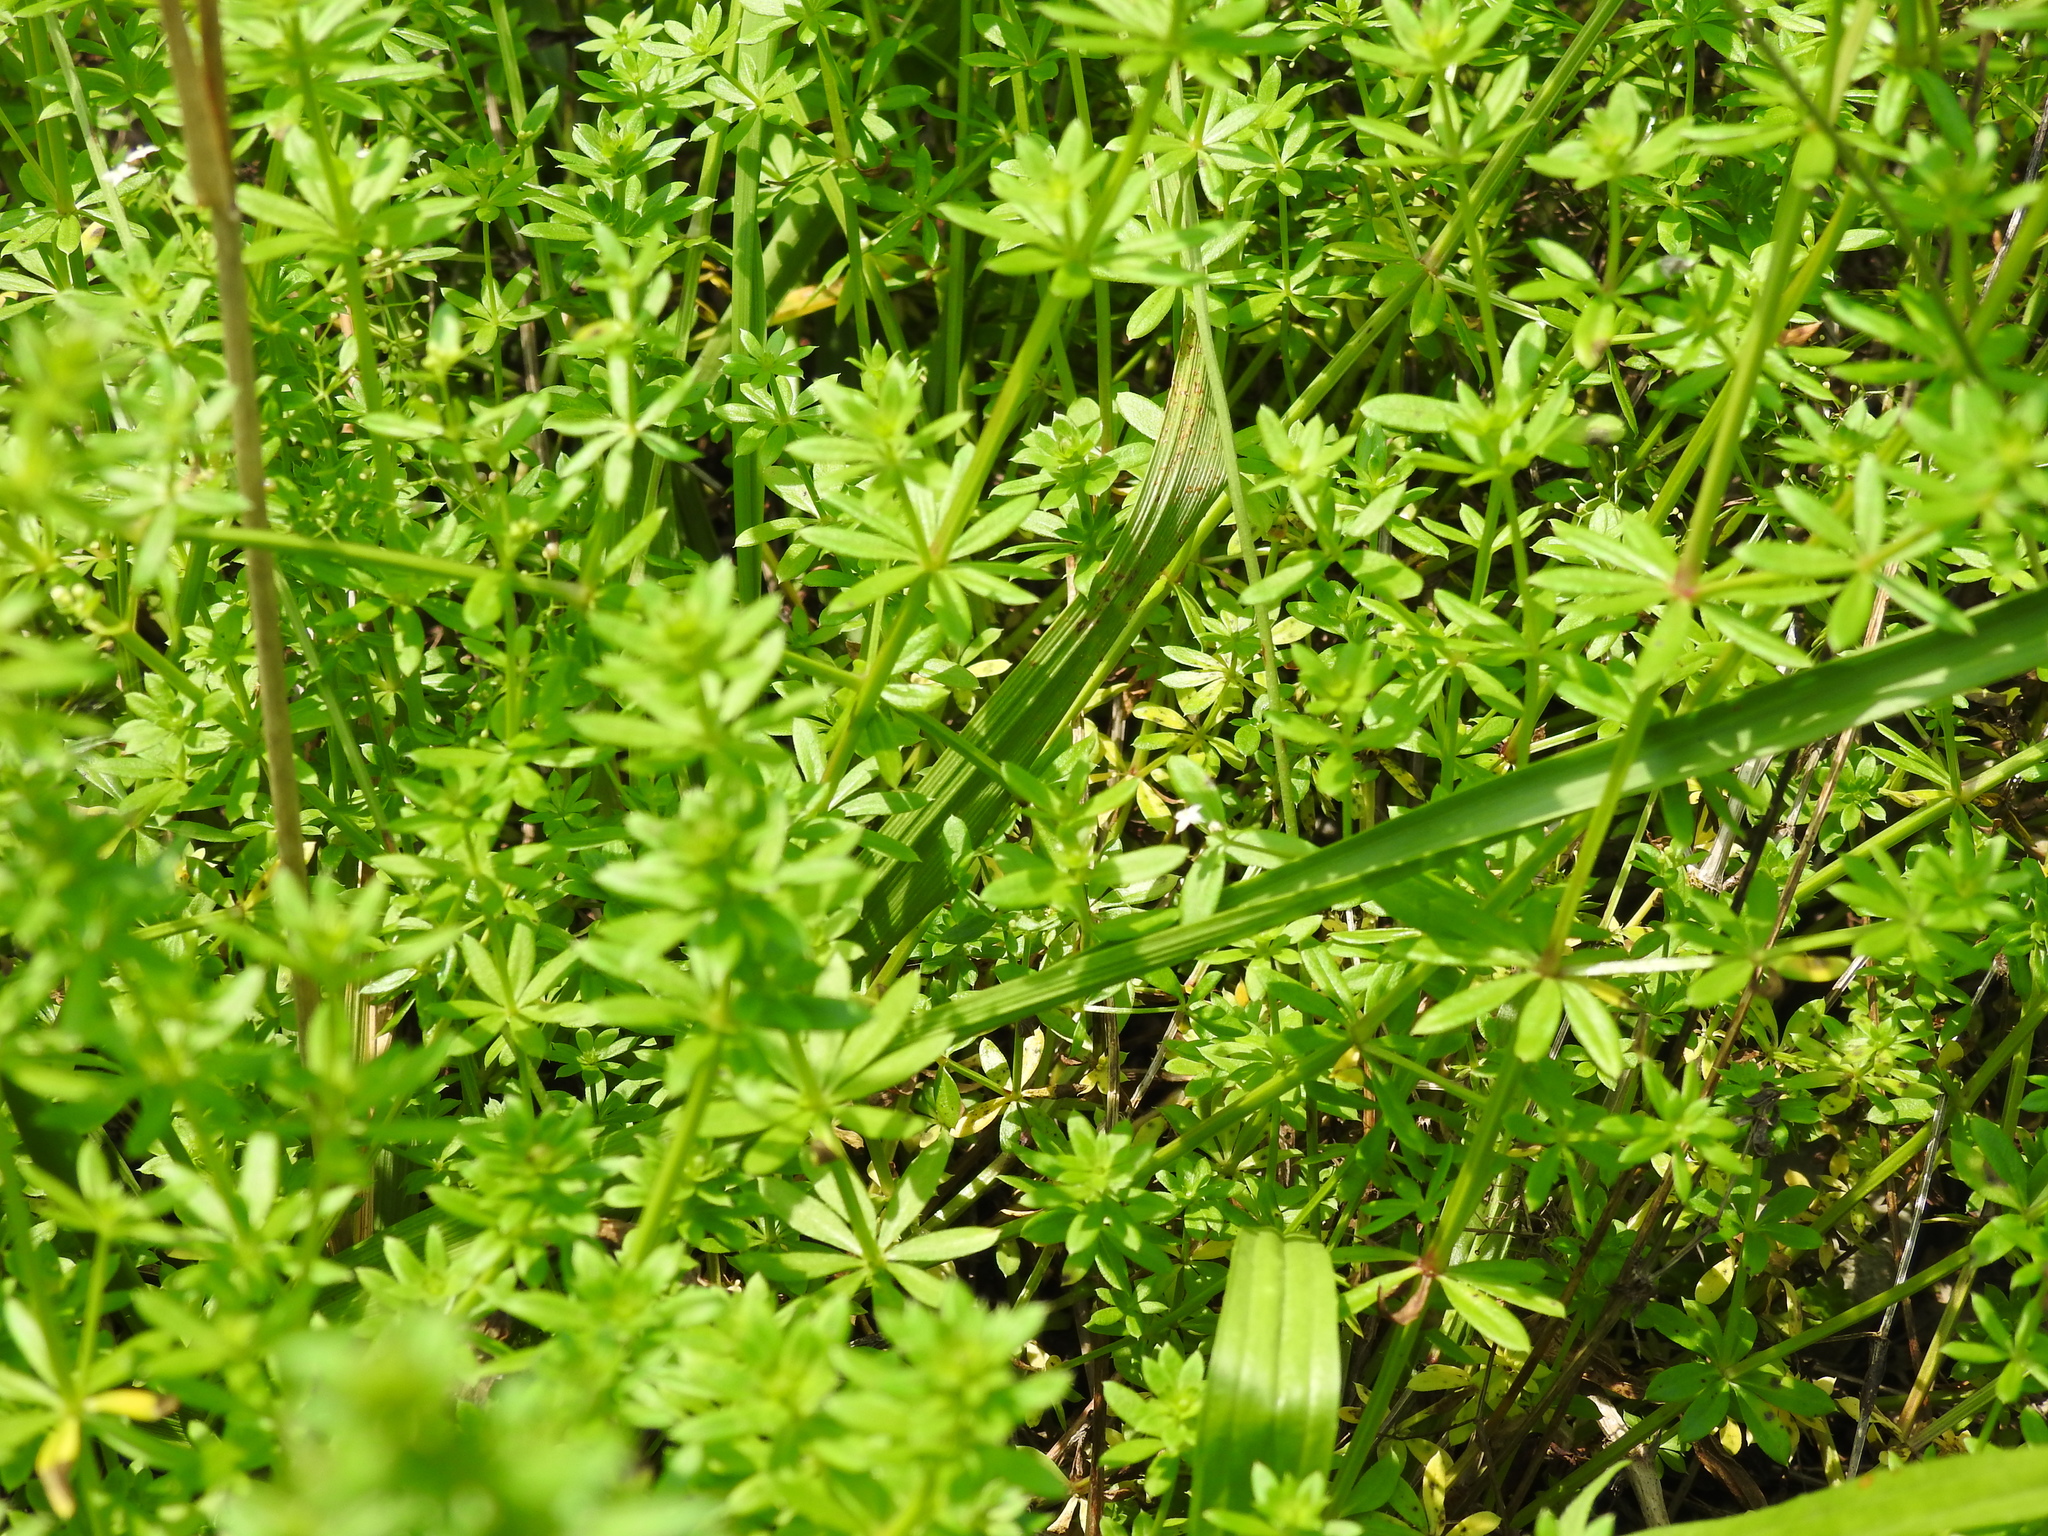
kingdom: Plantae
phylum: Tracheophyta
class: Magnoliopsida
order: Gentianales
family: Rubiaceae
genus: Galium
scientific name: Galium mollugo
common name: Hedge bedstraw
